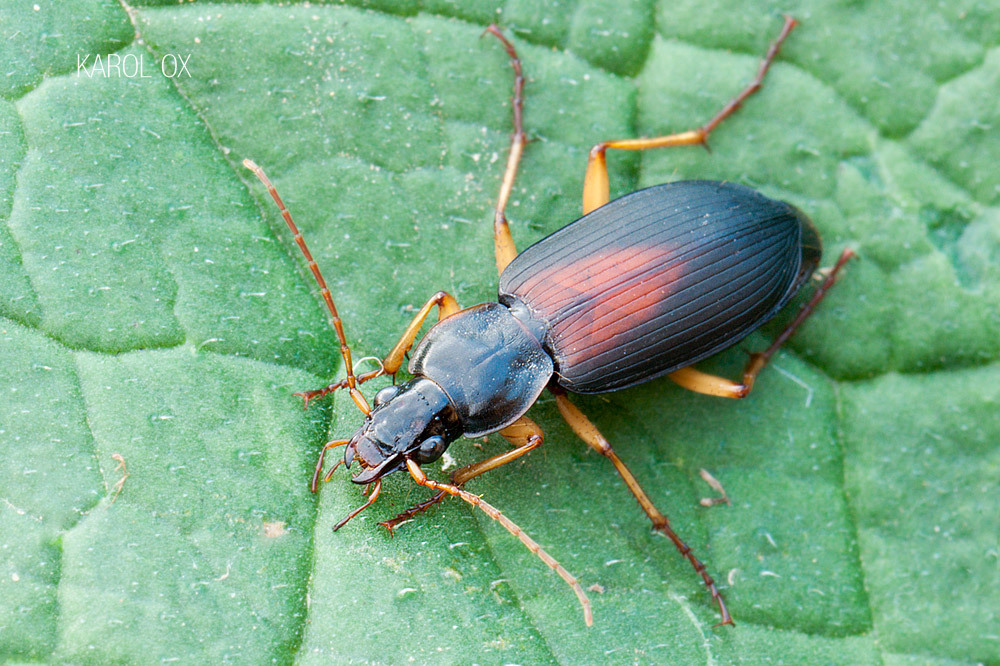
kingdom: Animalia
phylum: Arthropoda
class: Insecta
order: Coleoptera
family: Carabidae
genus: Dolichus
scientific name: Dolichus halensis
